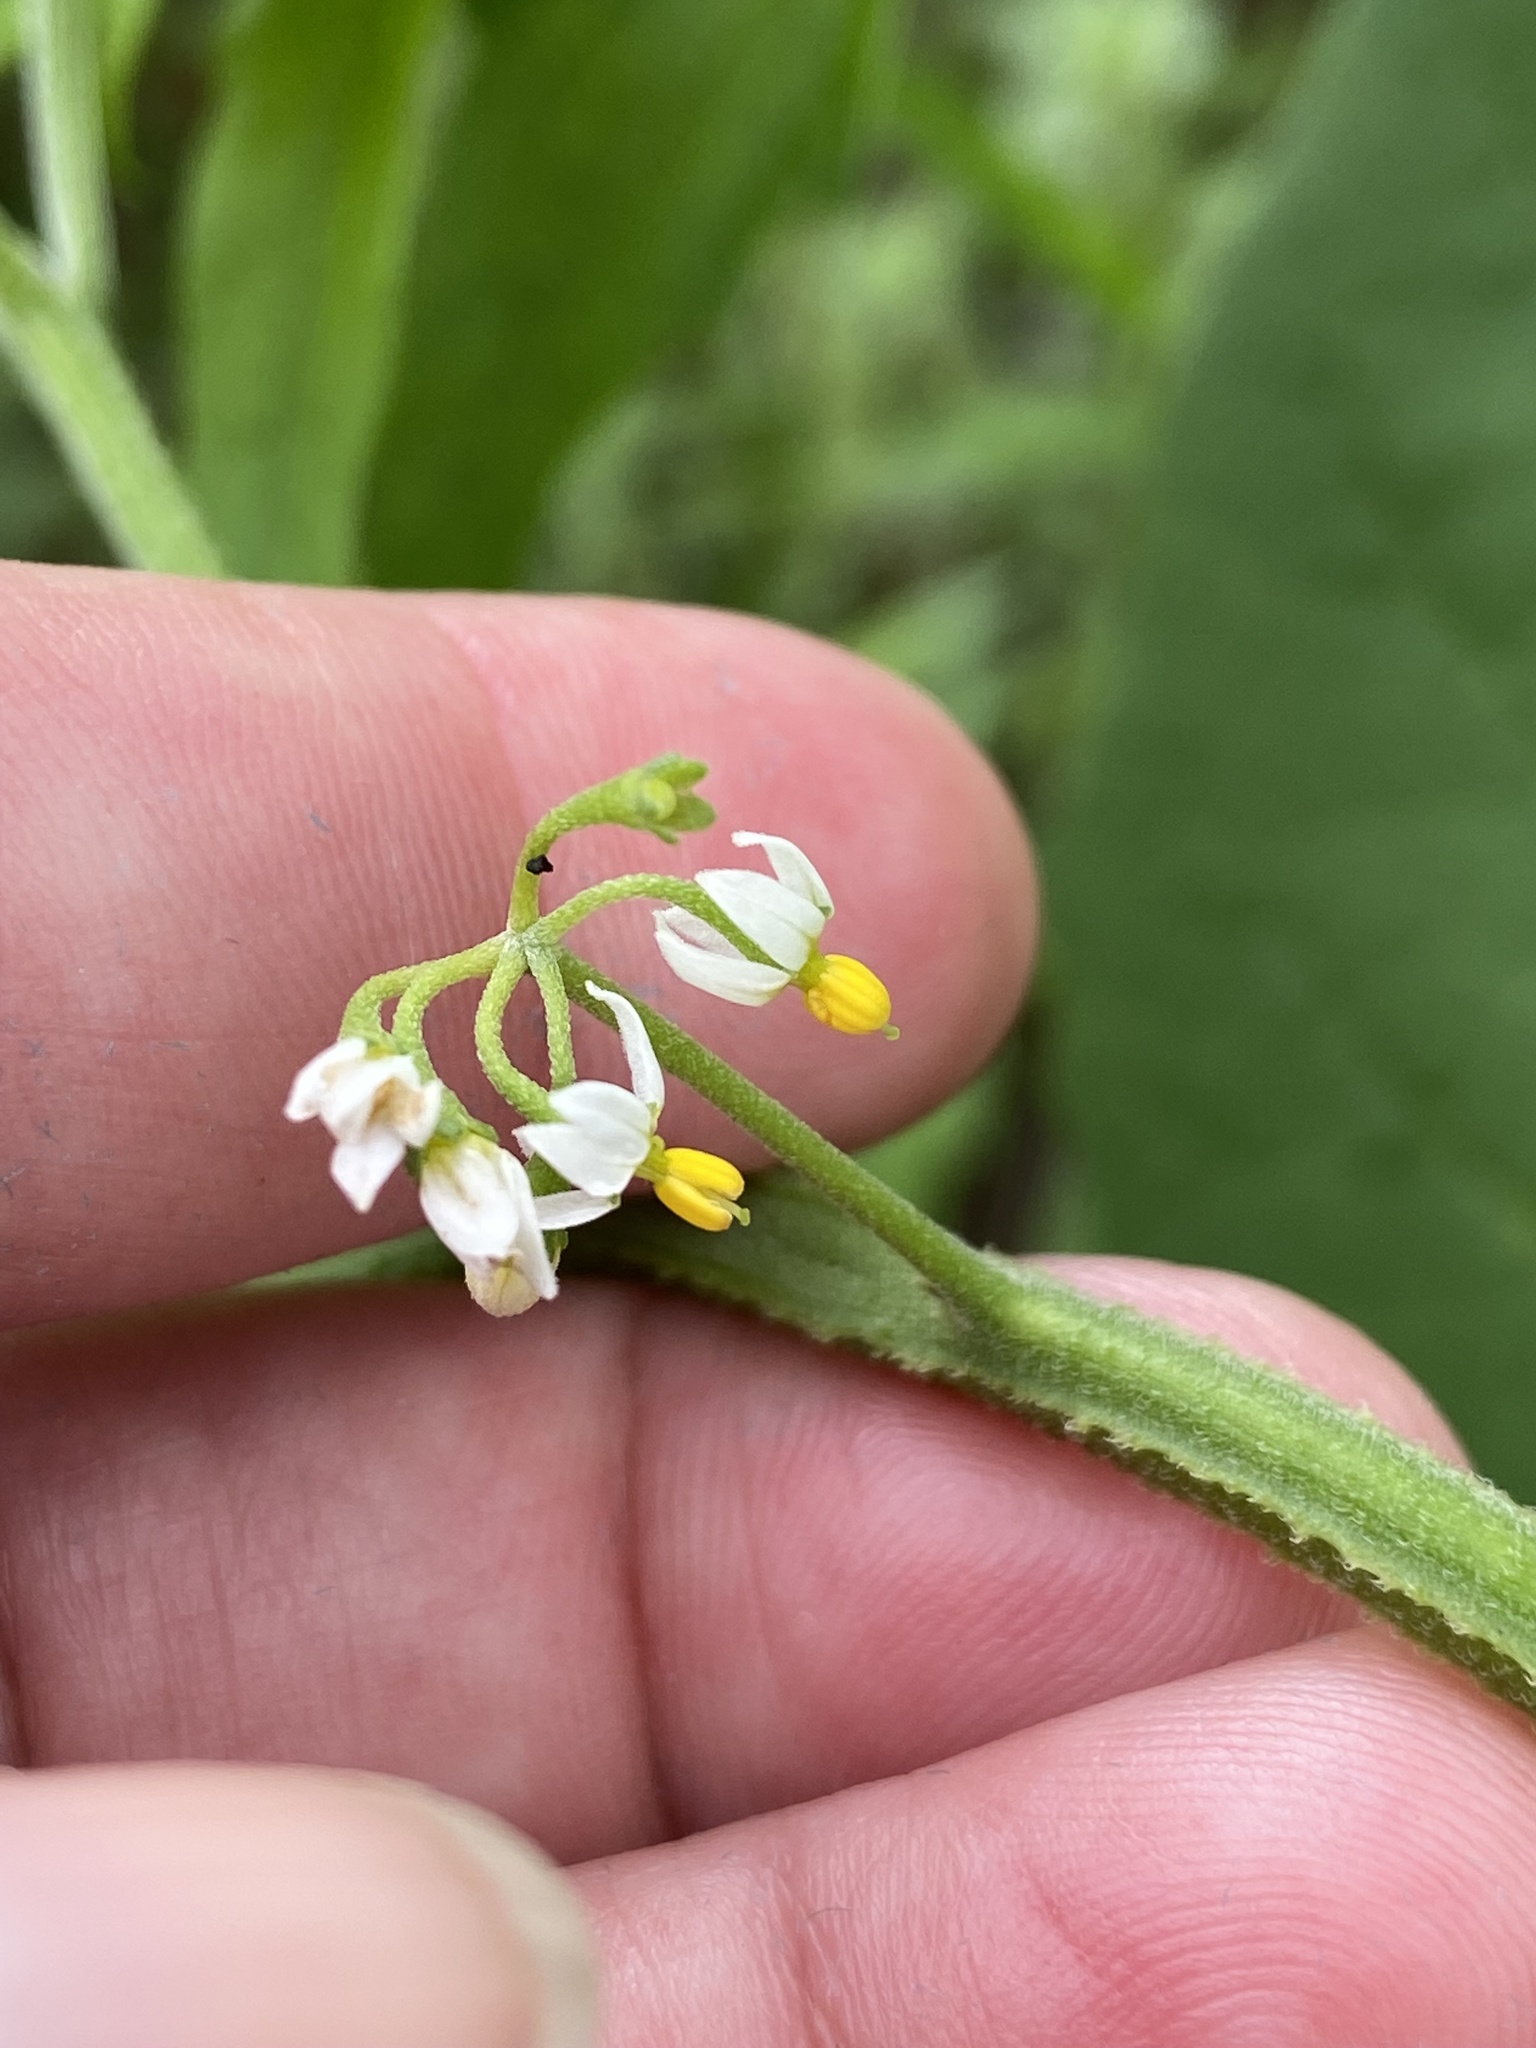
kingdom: Plantae
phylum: Tracheophyta
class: Magnoliopsida
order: Solanales
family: Solanaceae
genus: Solanum
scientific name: Solanum americanum
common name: American black nightshade
